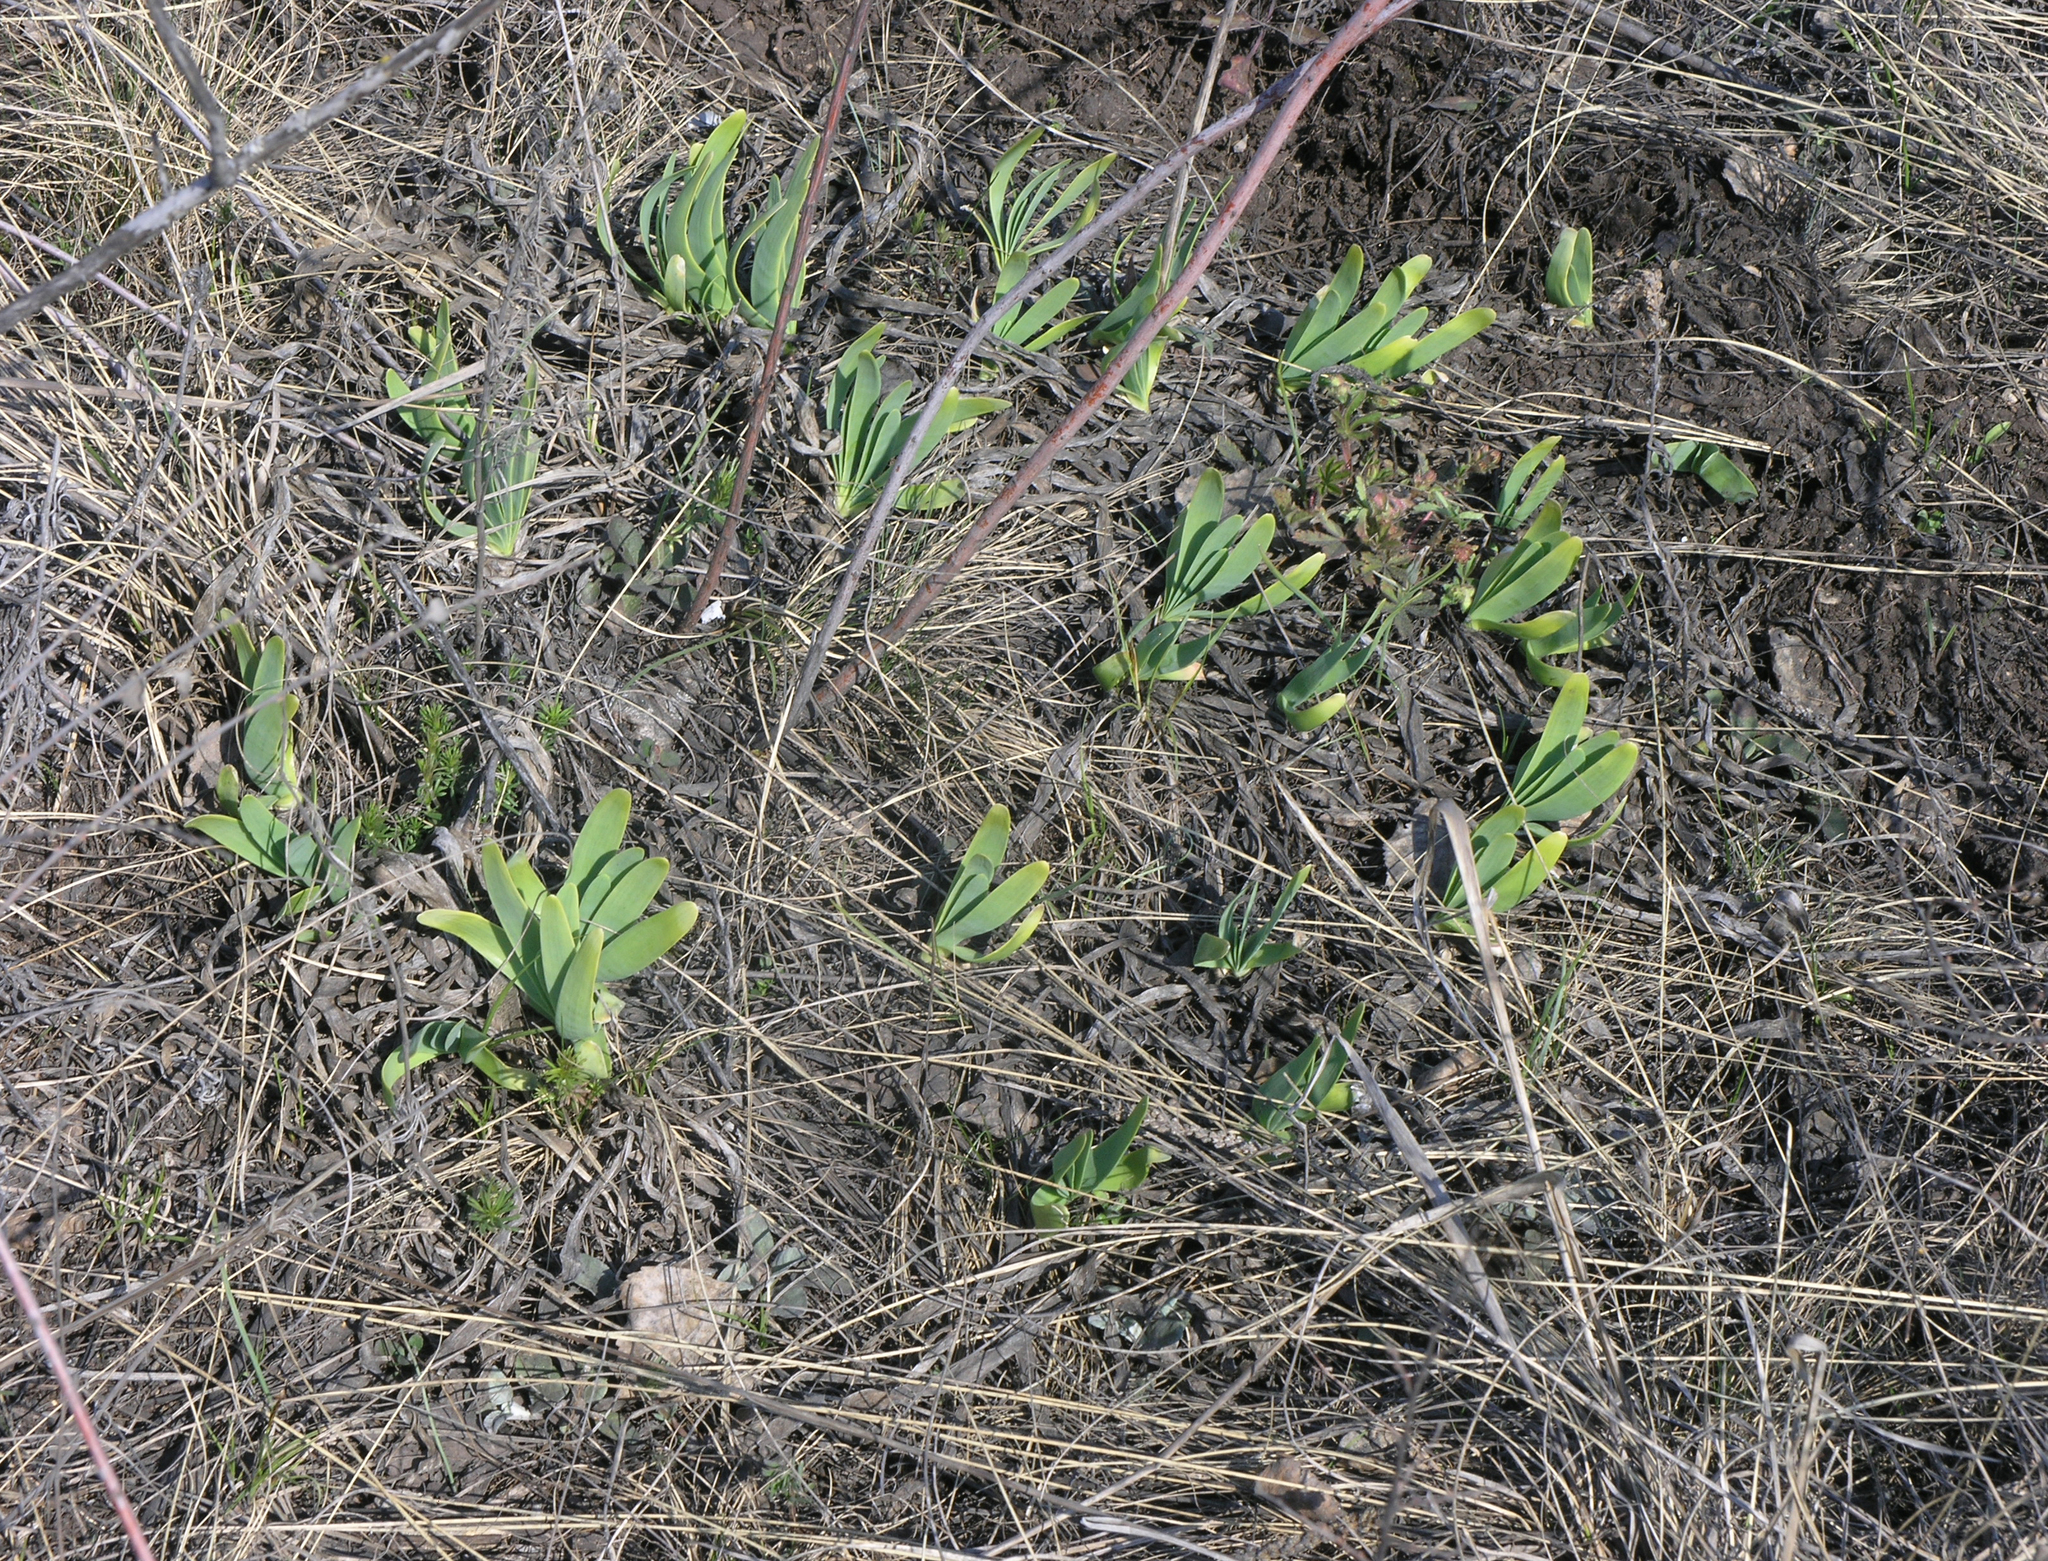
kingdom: Plantae
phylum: Tracheophyta
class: Liliopsida
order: Asparagales
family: Amaryllidaceae
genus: Allium
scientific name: Allium nutans
